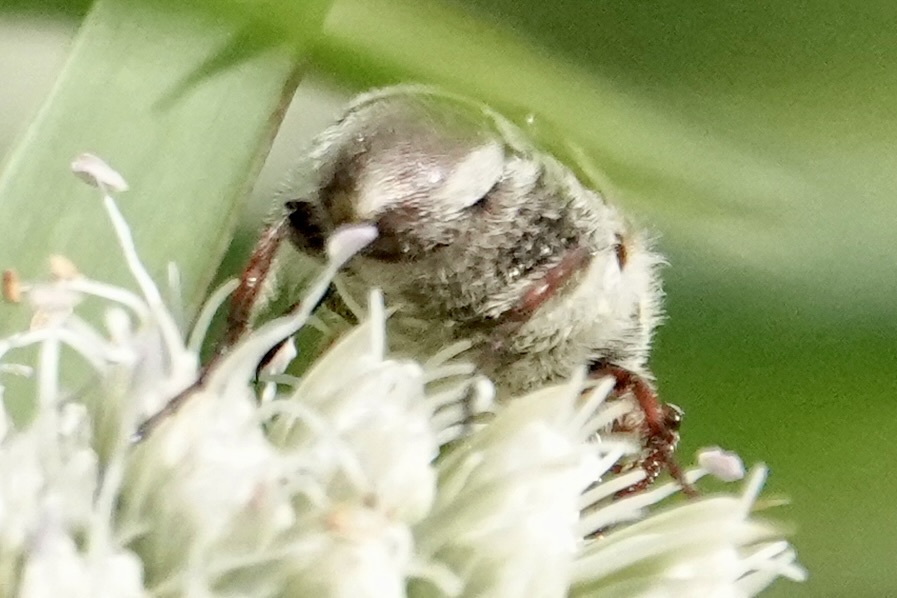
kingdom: Animalia
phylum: Arthropoda
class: Insecta
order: Coleoptera
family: Scarabaeidae
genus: Trichiotinus
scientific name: Trichiotinus piger
